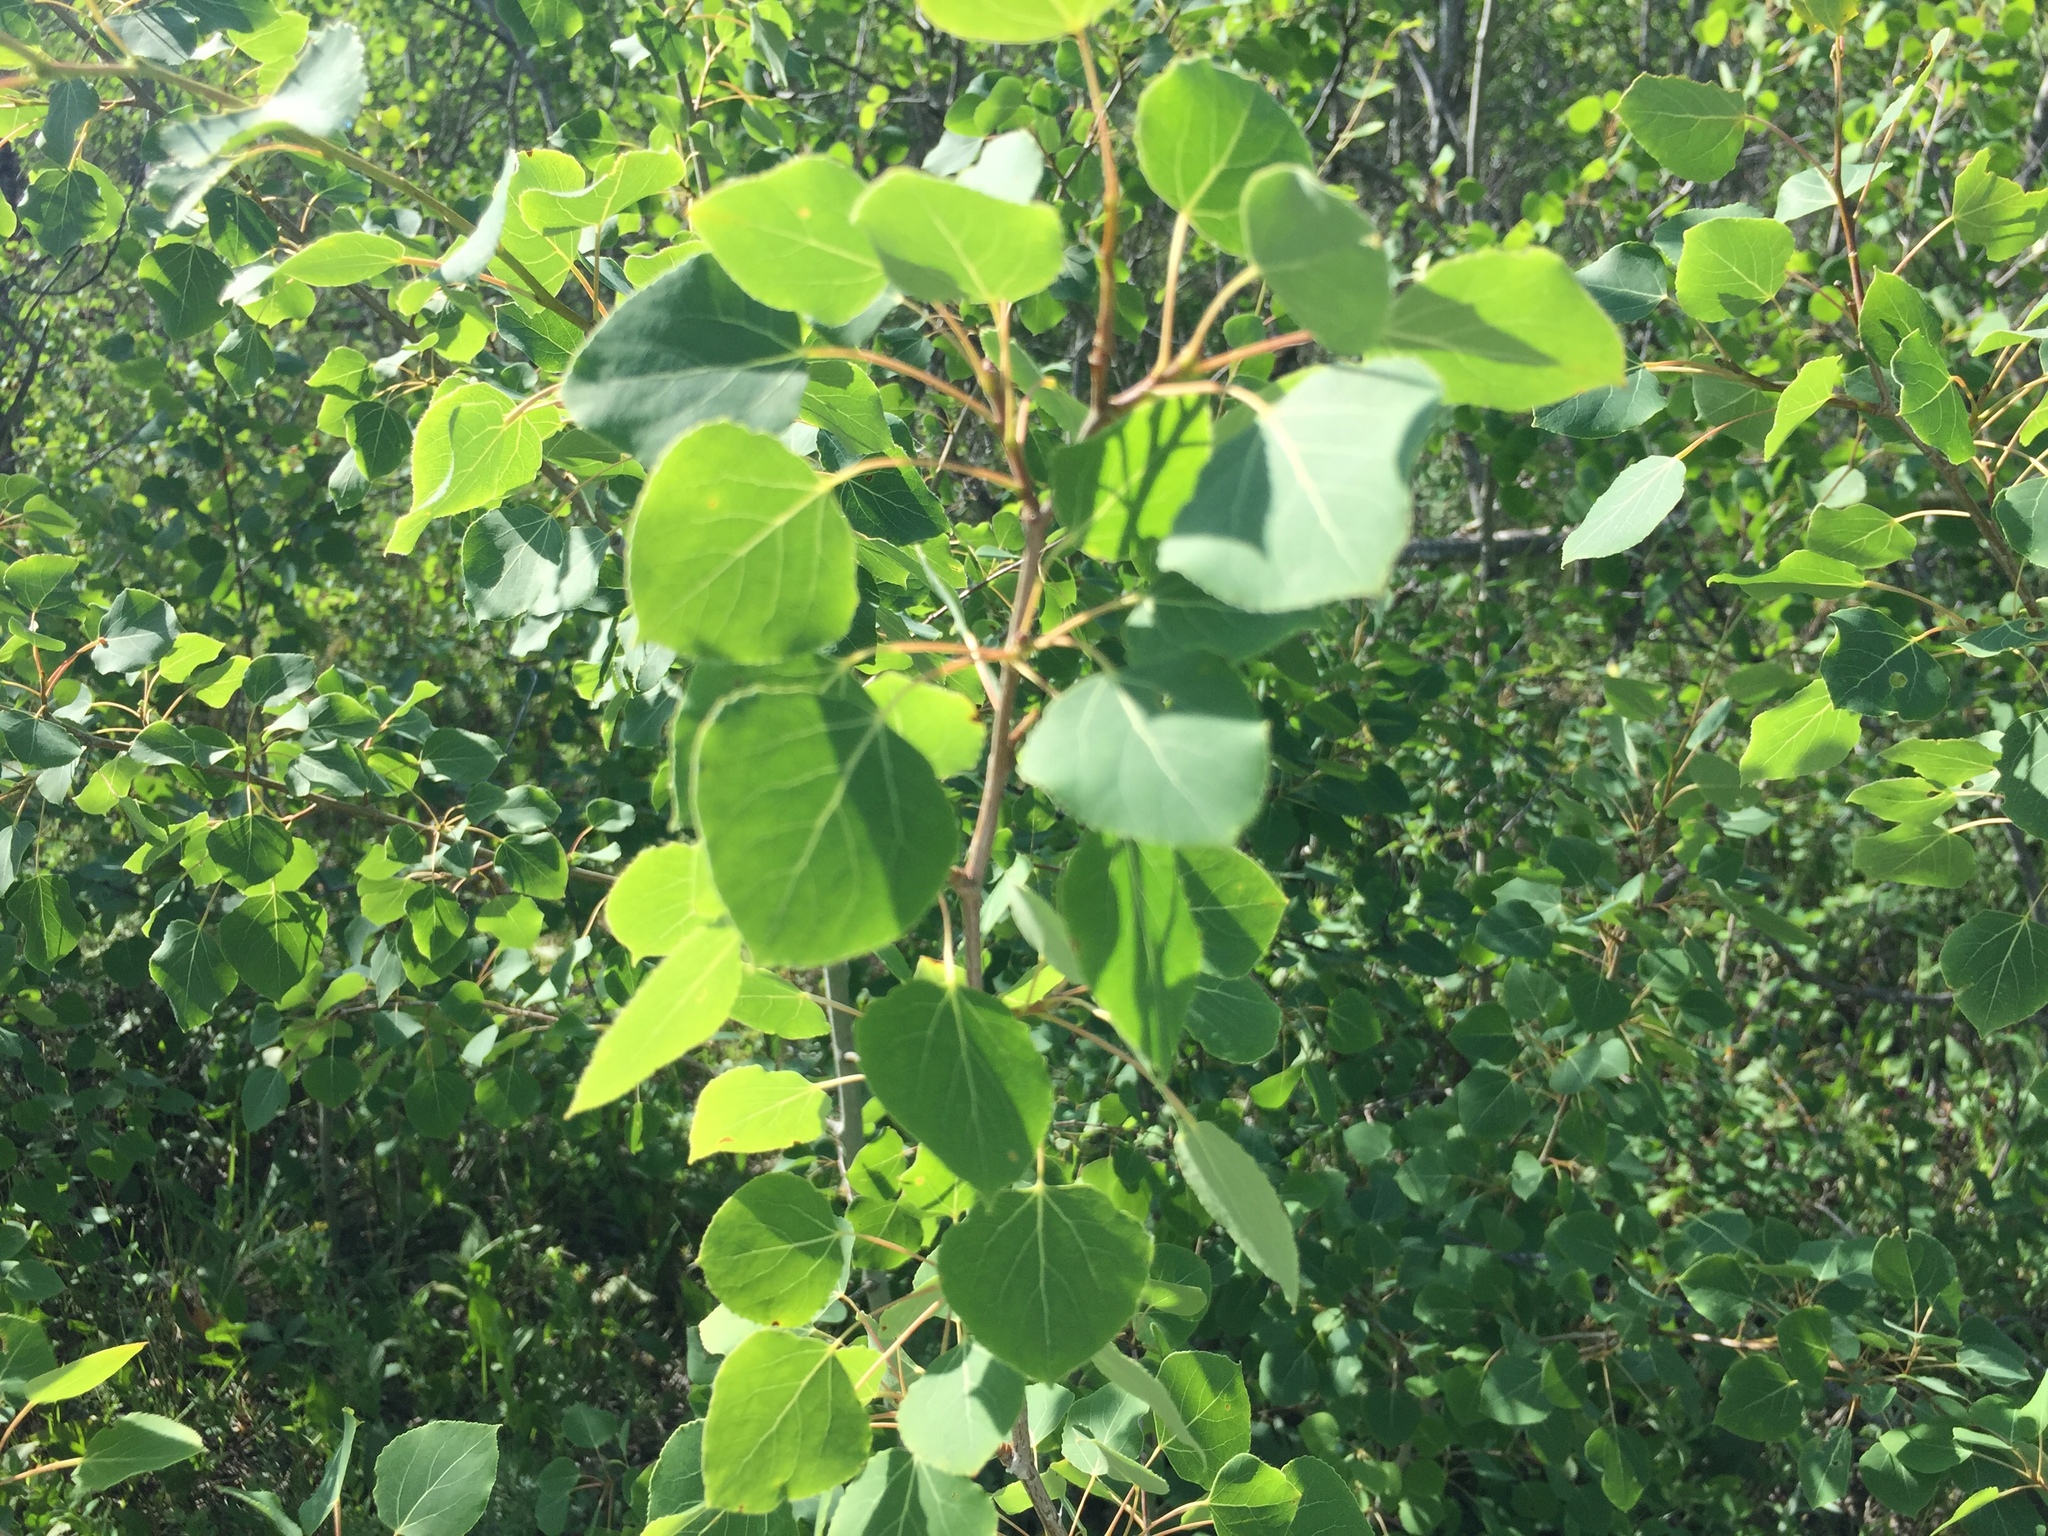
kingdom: Plantae
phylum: Tracheophyta
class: Magnoliopsida
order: Malpighiales
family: Salicaceae
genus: Populus
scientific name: Populus tremuloides
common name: Quaking aspen
